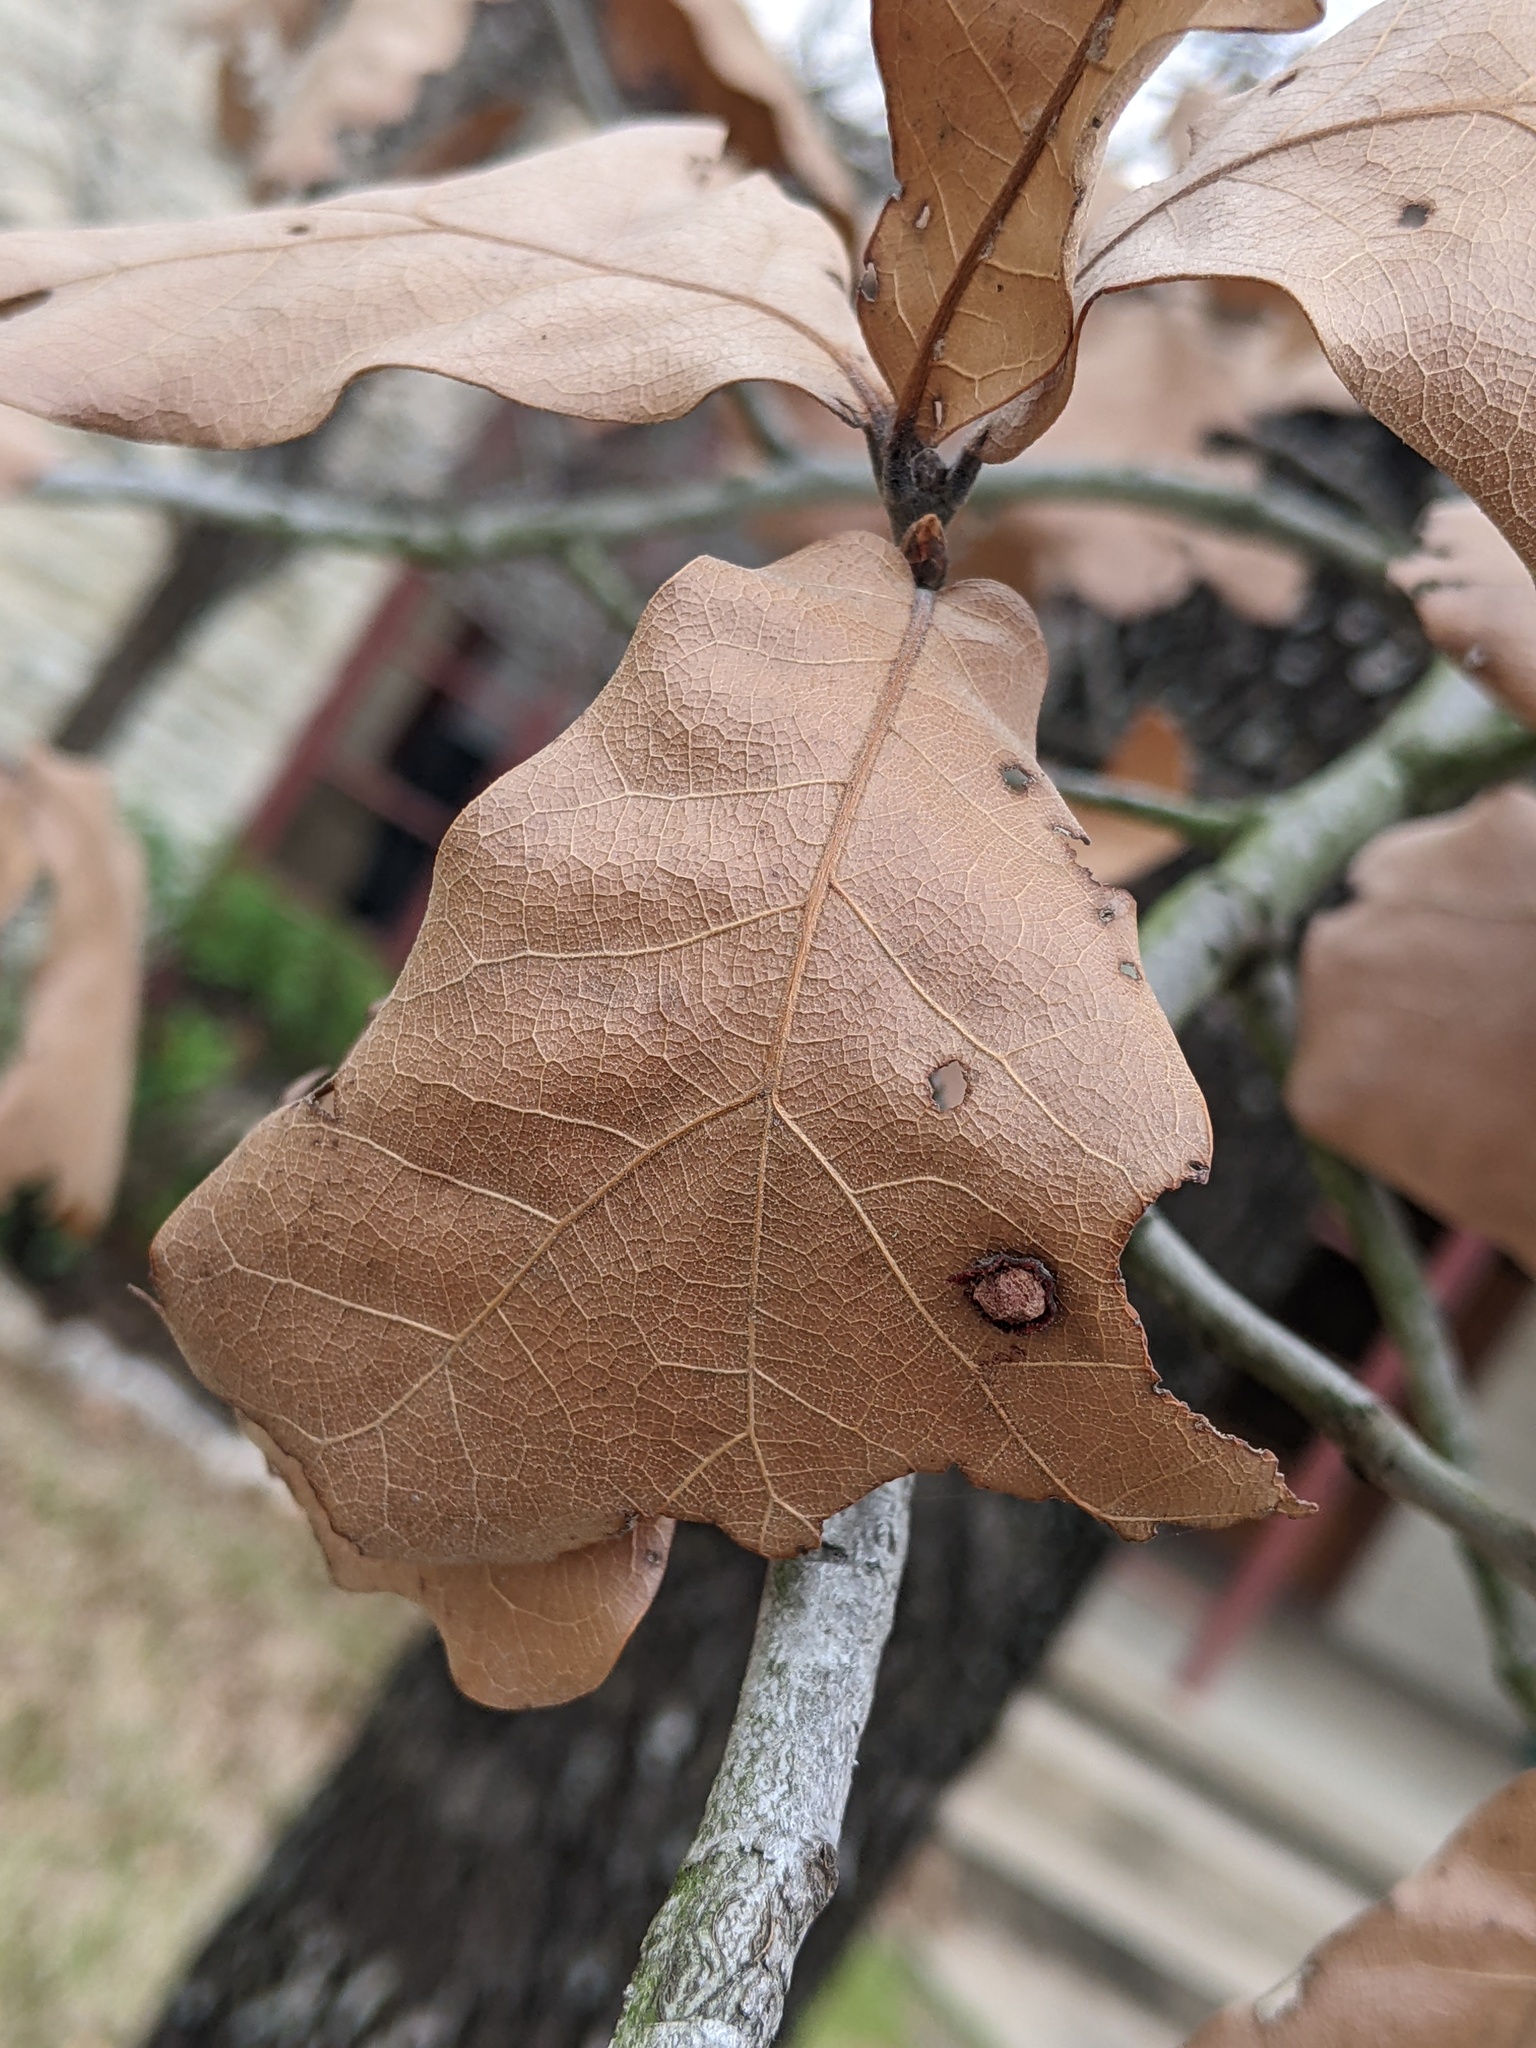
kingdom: Animalia
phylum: Arthropoda
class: Insecta
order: Diptera
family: Cecidomyiidae
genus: Polystepha
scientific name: Polystepha pilulae
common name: Oak leaf gall midge
